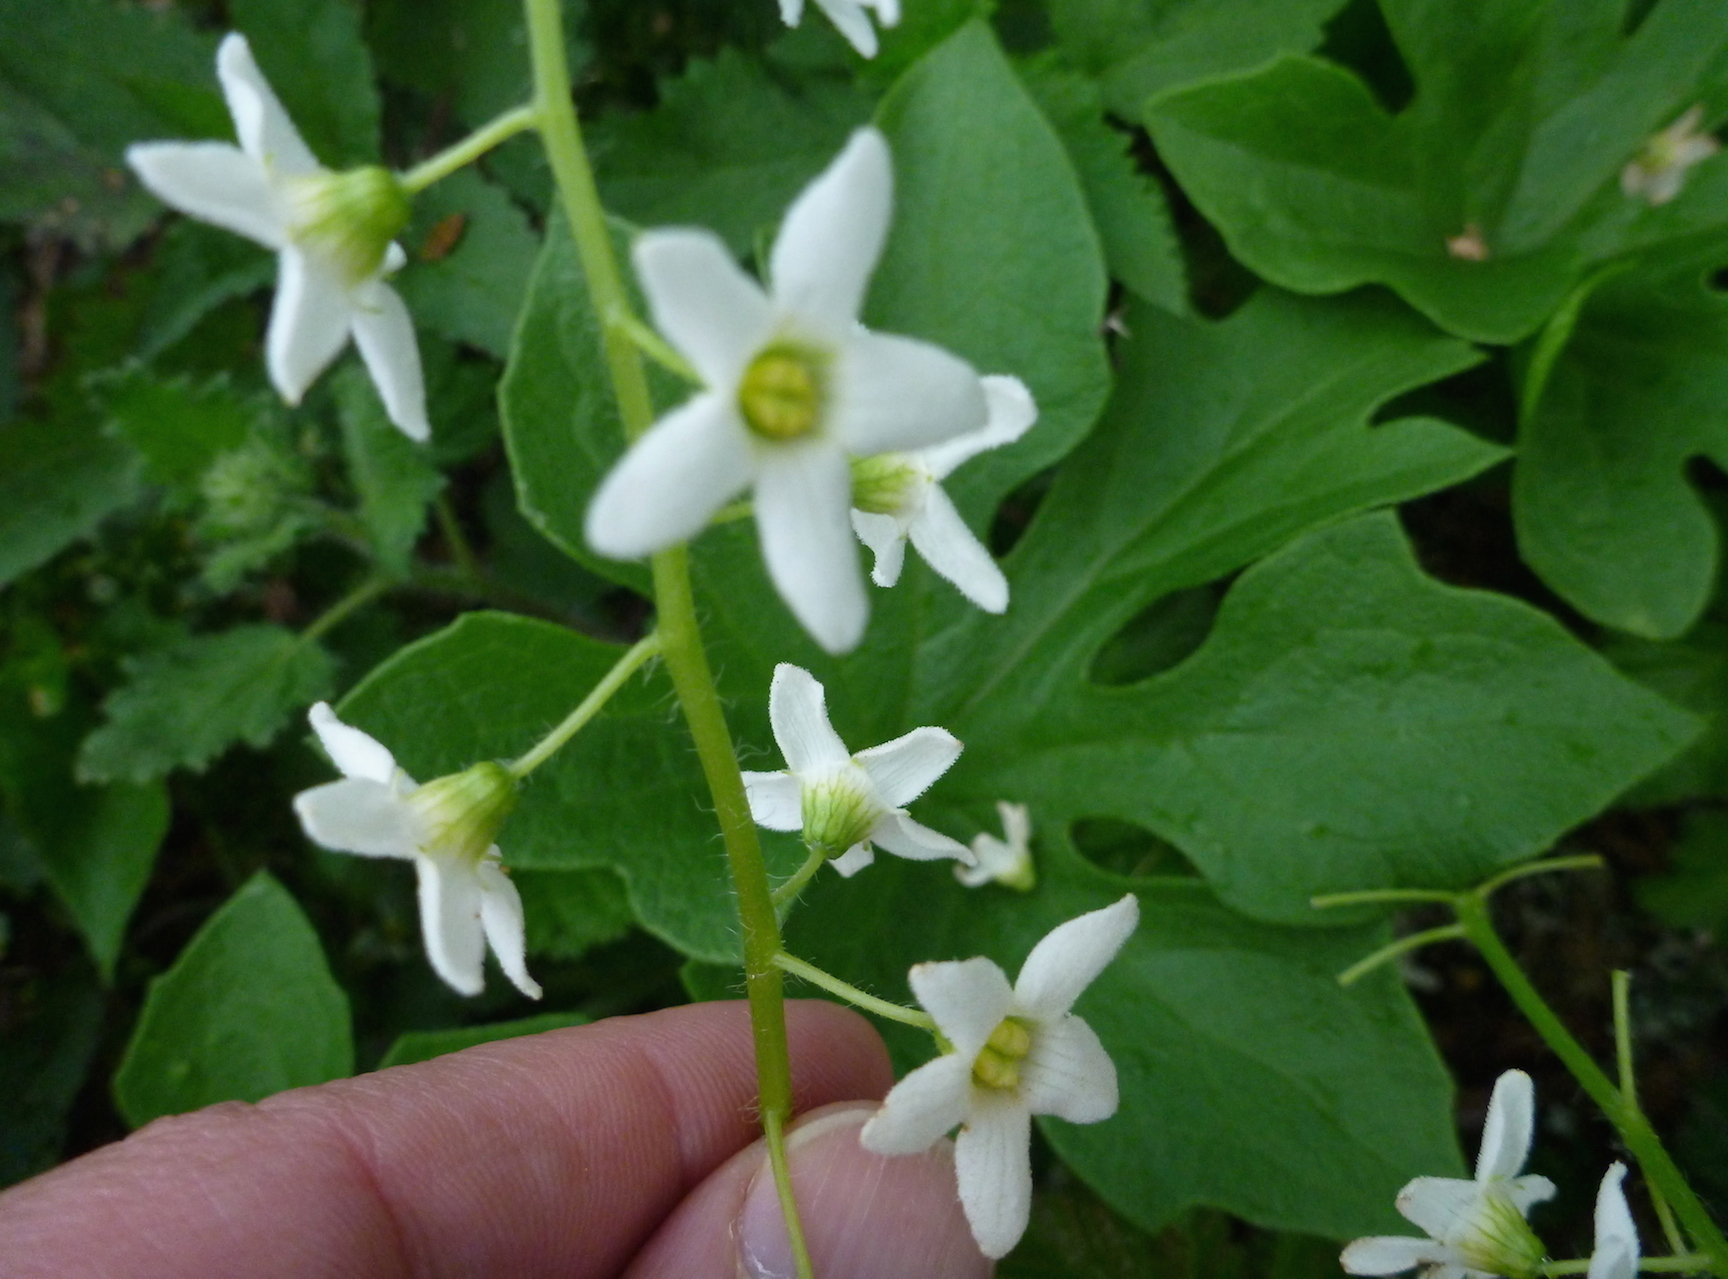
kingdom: Plantae
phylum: Tracheophyta
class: Magnoliopsida
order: Cucurbitales
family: Cucurbitaceae
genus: Marah
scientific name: Marah oregana
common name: Coastal manroot
